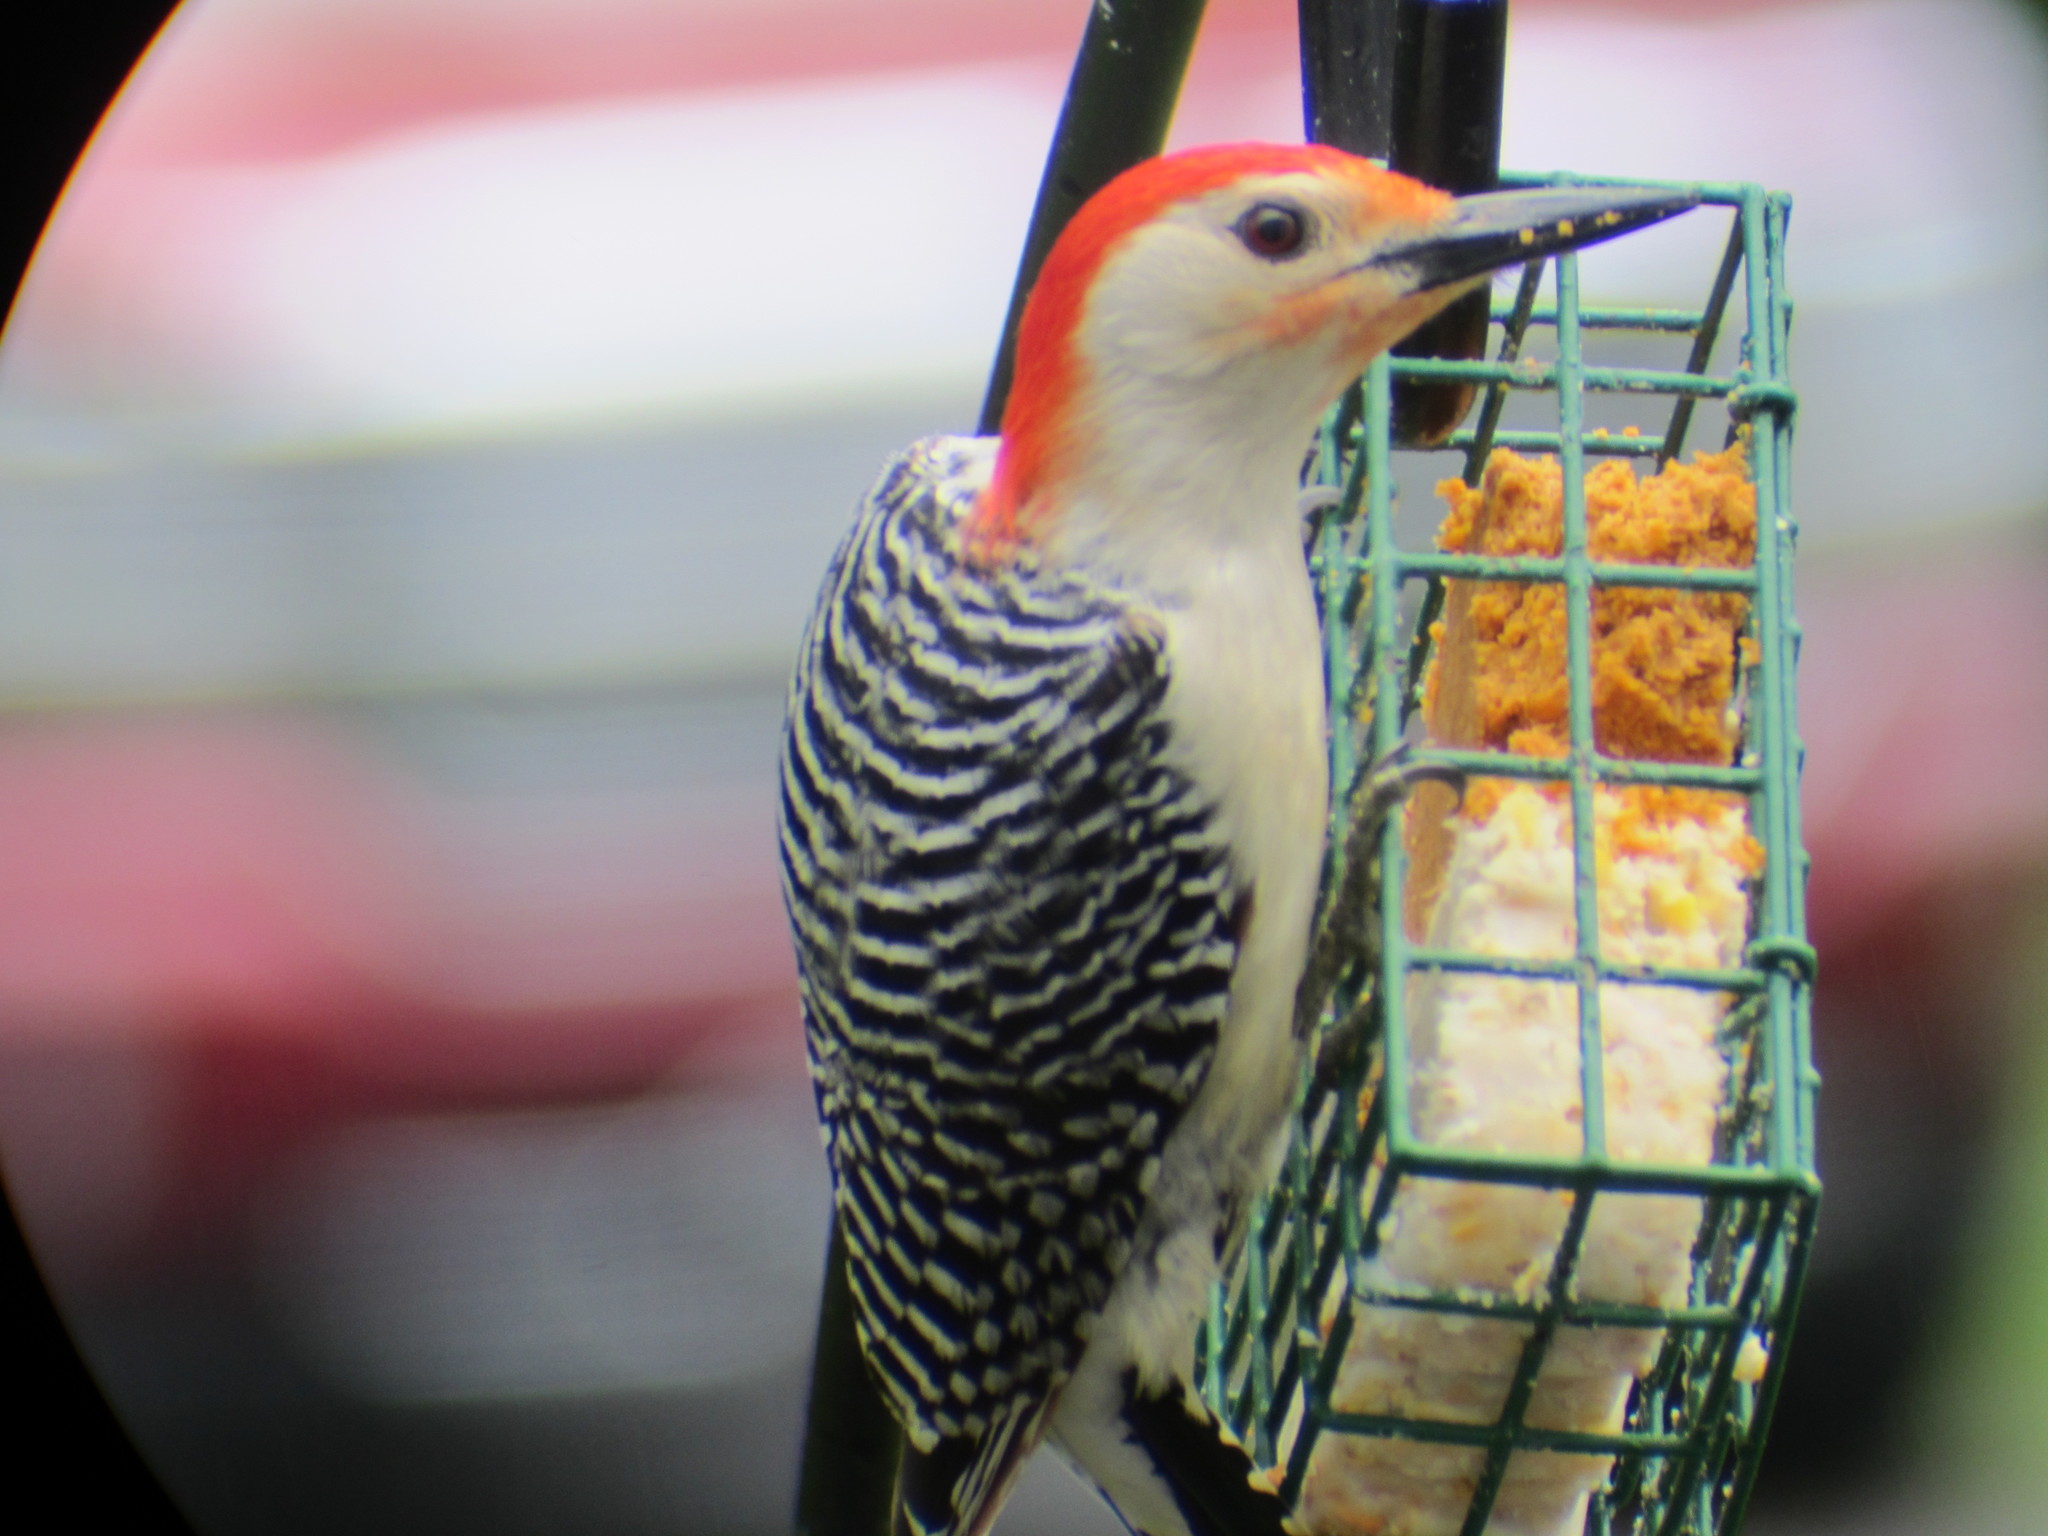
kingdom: Animalia
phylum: Chordata
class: Aves
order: Piciformes
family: Picidae
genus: Melanerpes
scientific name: Melanerpes carolinus
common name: Red-bellied woodpecker
